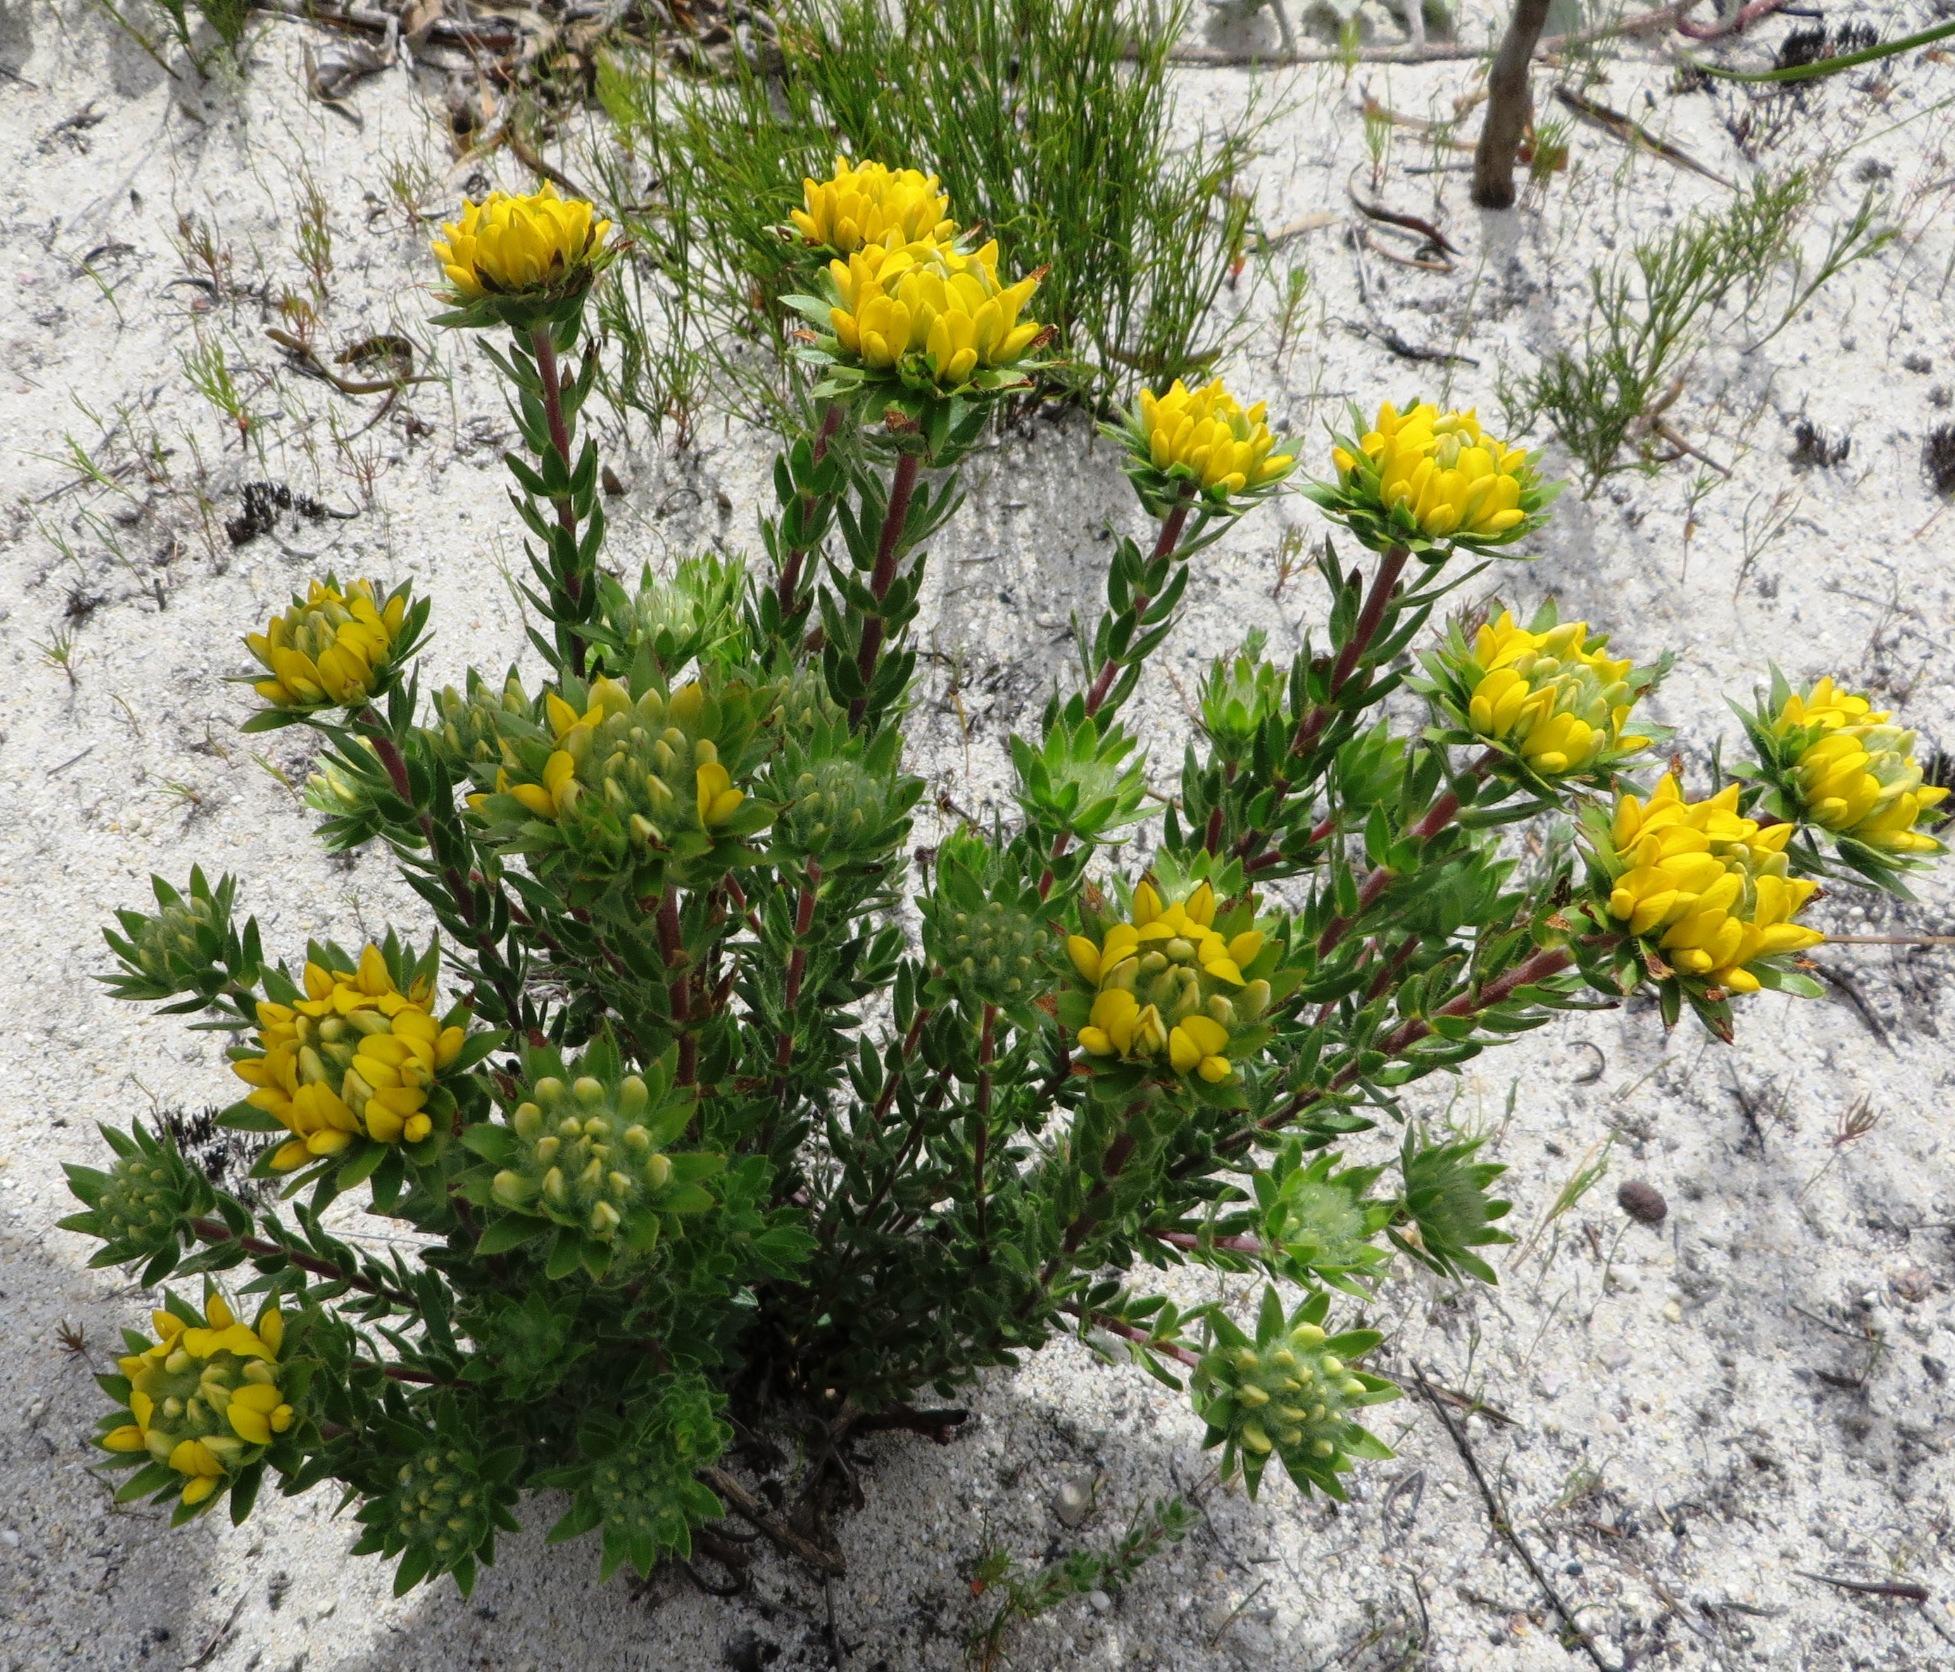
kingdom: Plantae
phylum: Tracheophyta
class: Magnoliopsida
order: Fabales
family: Fabaceae
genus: Aspalathus
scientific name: Aspalathus aspalathoides
